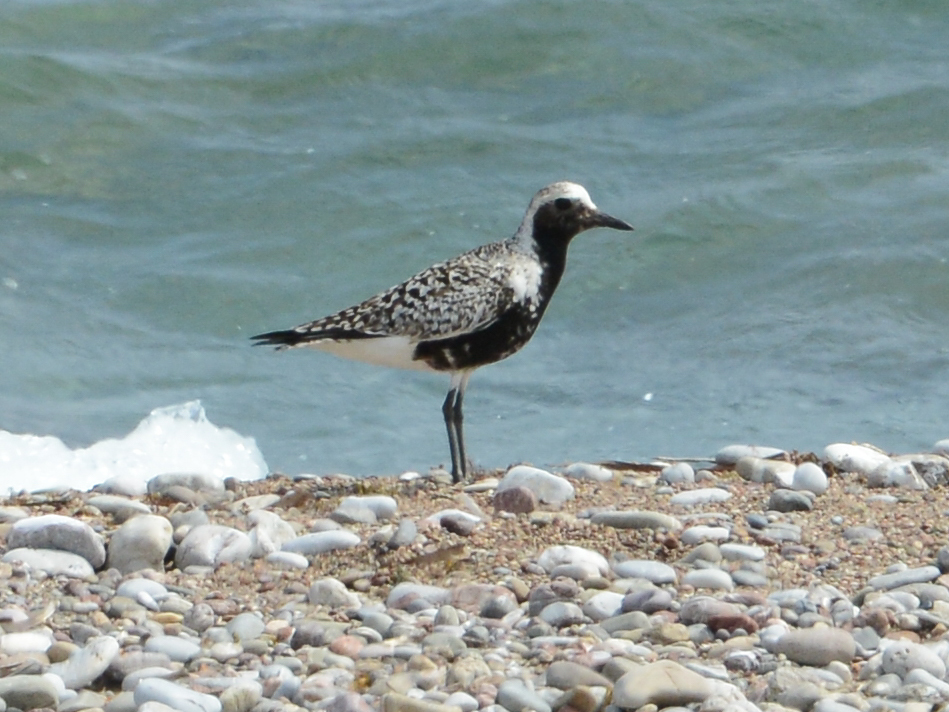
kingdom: Animalia
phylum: Chordata
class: Aves
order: Charadriiformes
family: Charadriidae
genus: Pluvialis
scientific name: Pluvialis squatarola
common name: Grey plover
